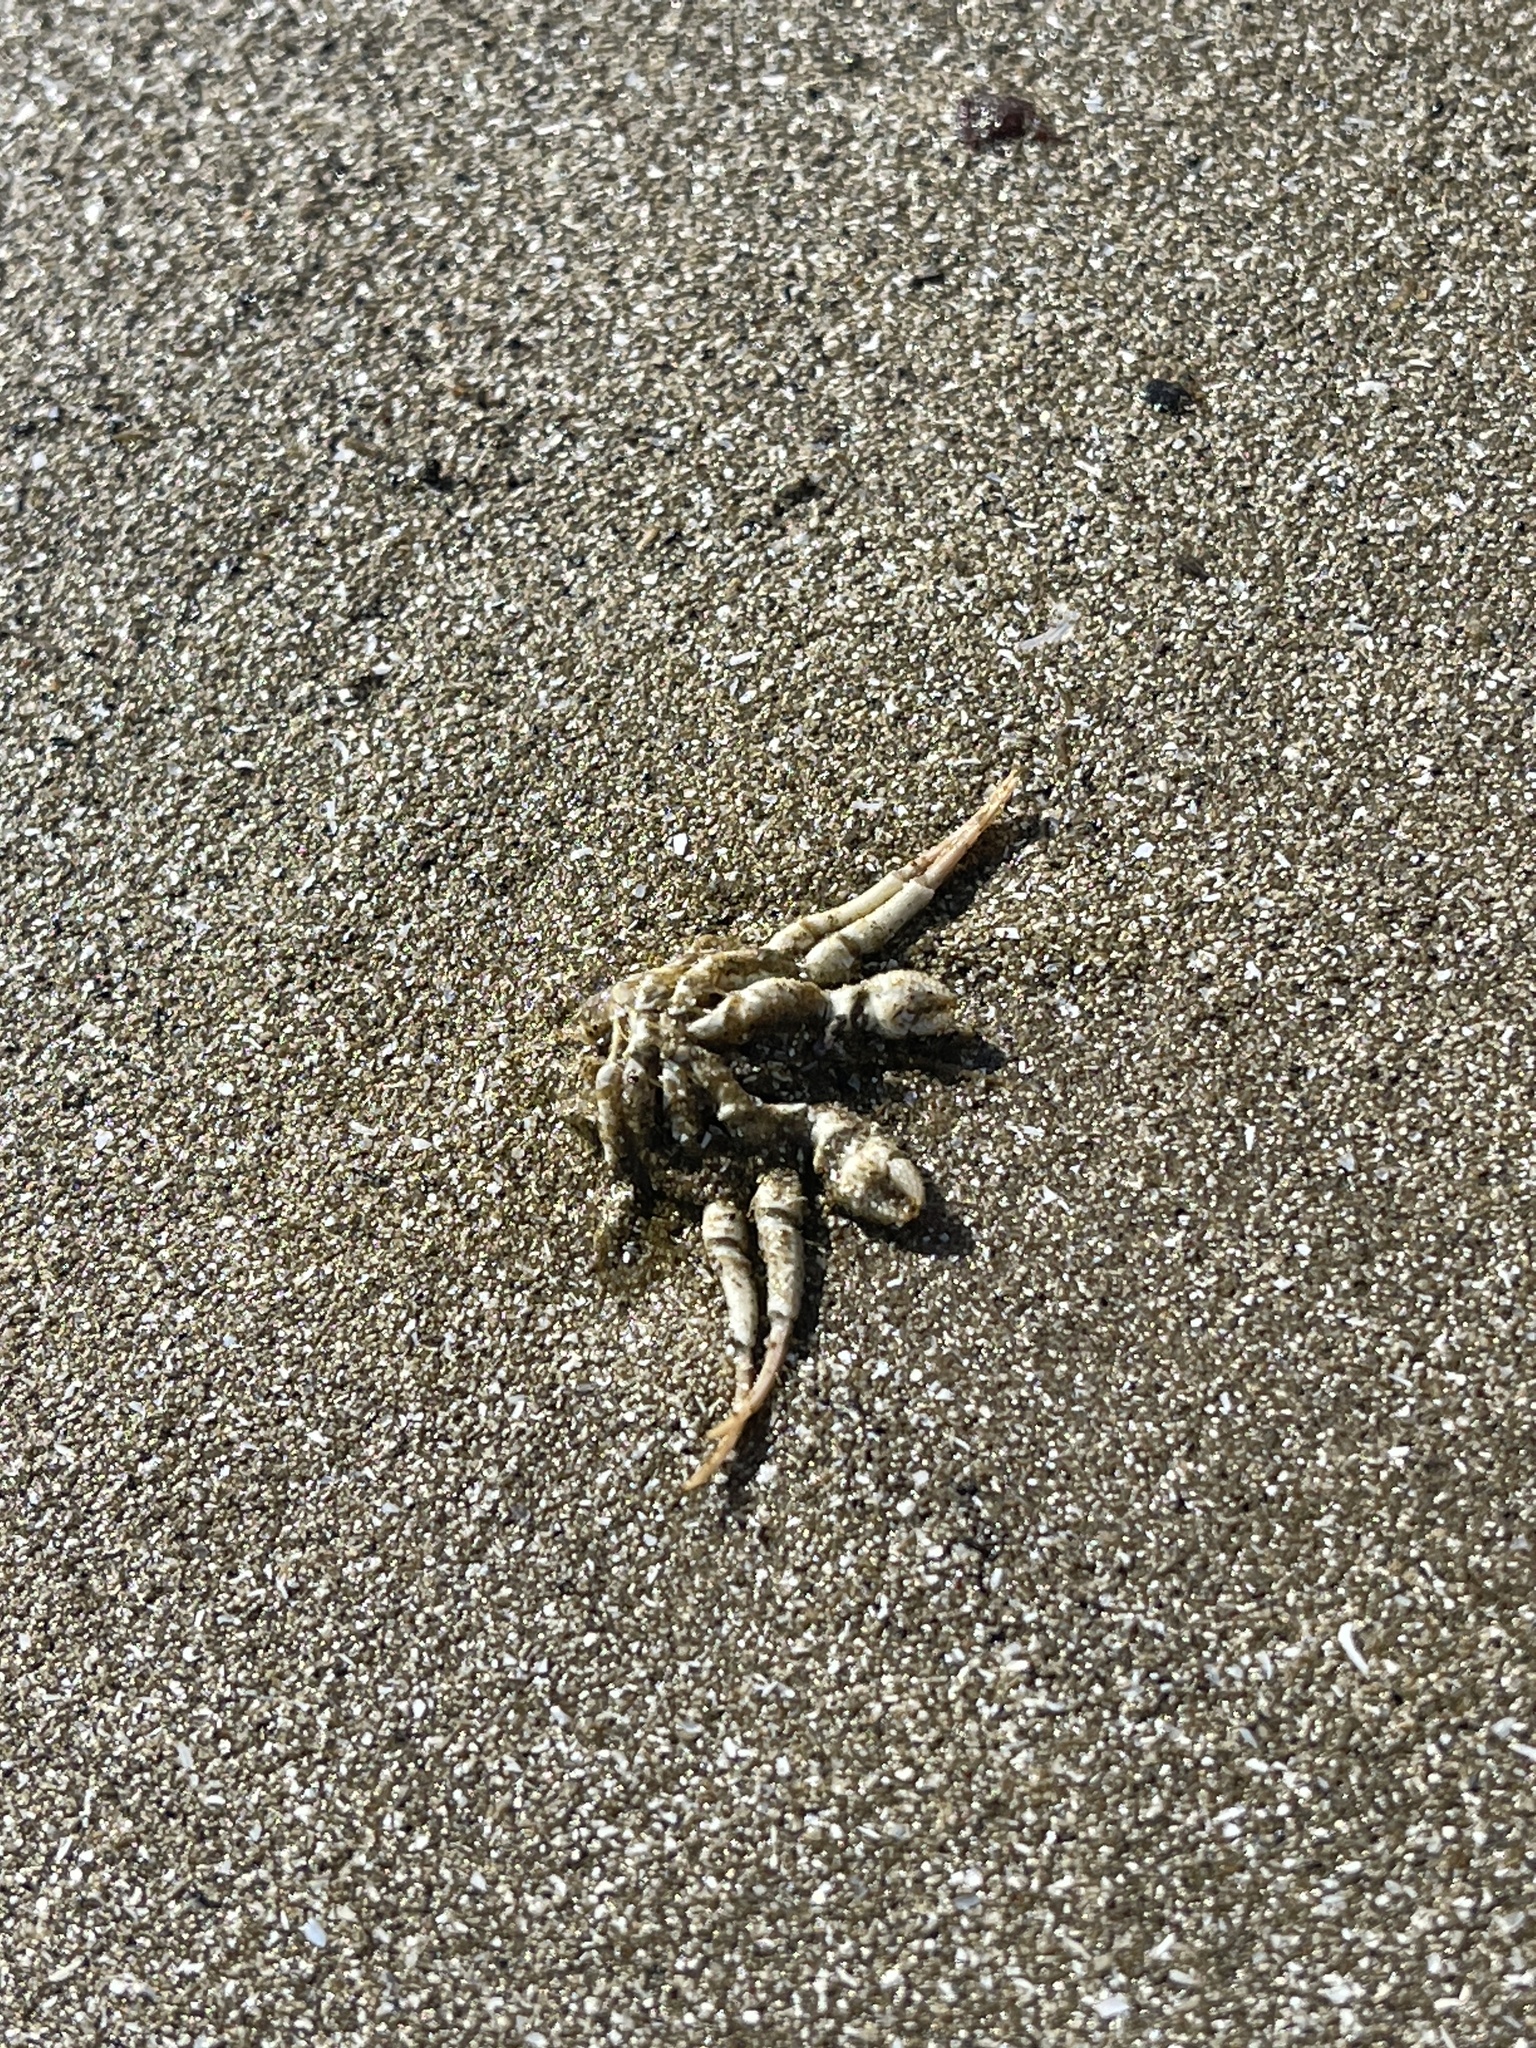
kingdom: Animalia
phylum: Arthropoda
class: Malacostraca
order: Decapoda
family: Diogenidae
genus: Isocheles
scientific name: Isocheles wurdemanni
